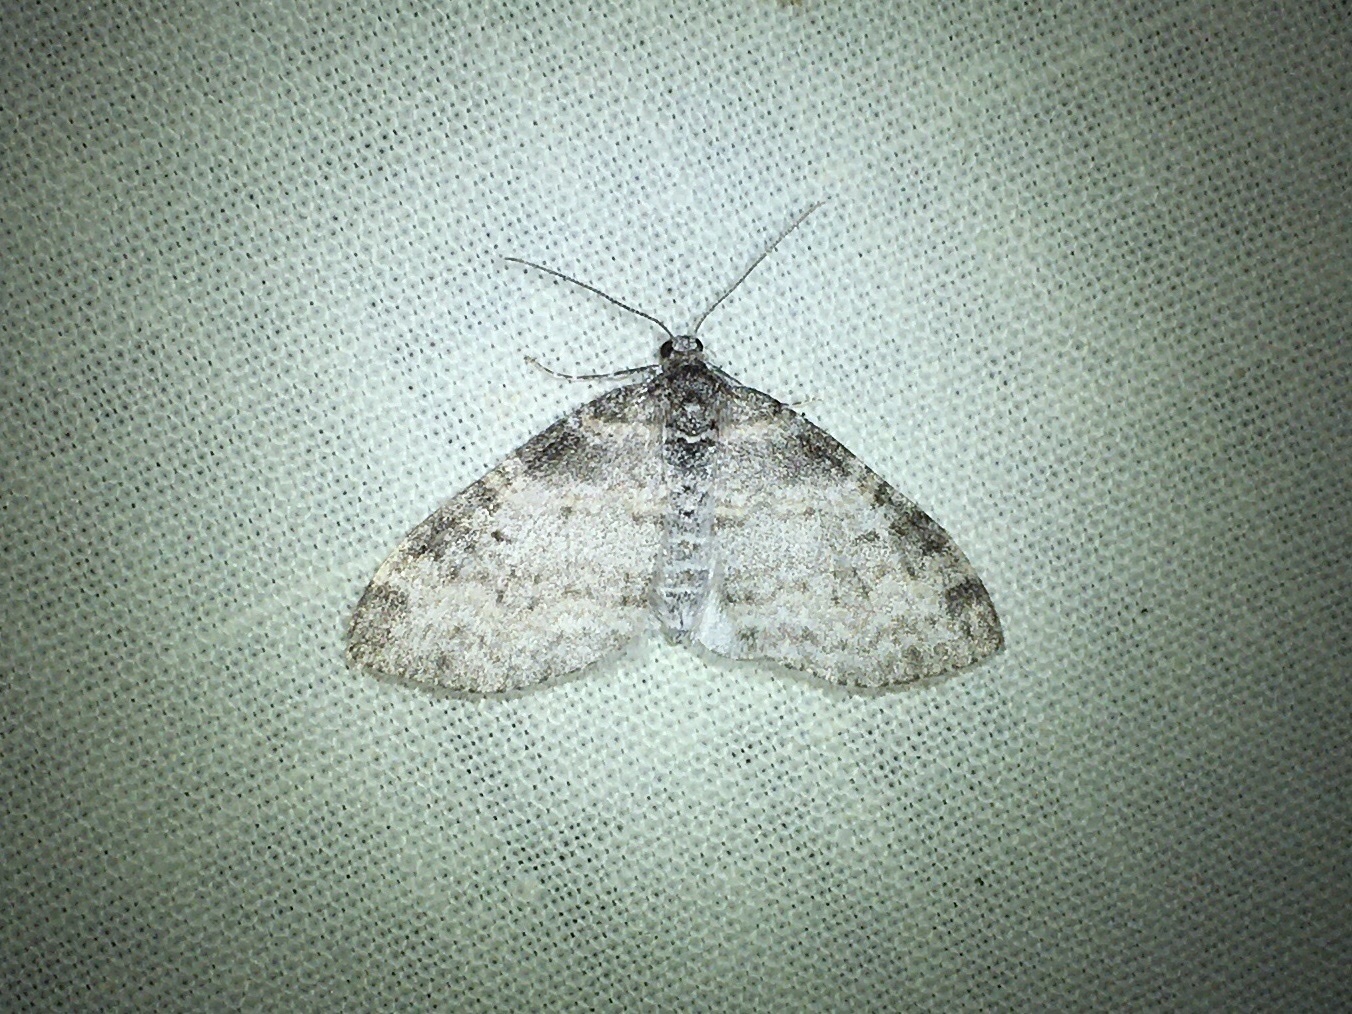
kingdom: Animalia
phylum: Arthropoda
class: Insecta
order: Lepidoptera
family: Geometridae
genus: Lobophora
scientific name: Lobophora nivigerata
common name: Powdered bigwing
